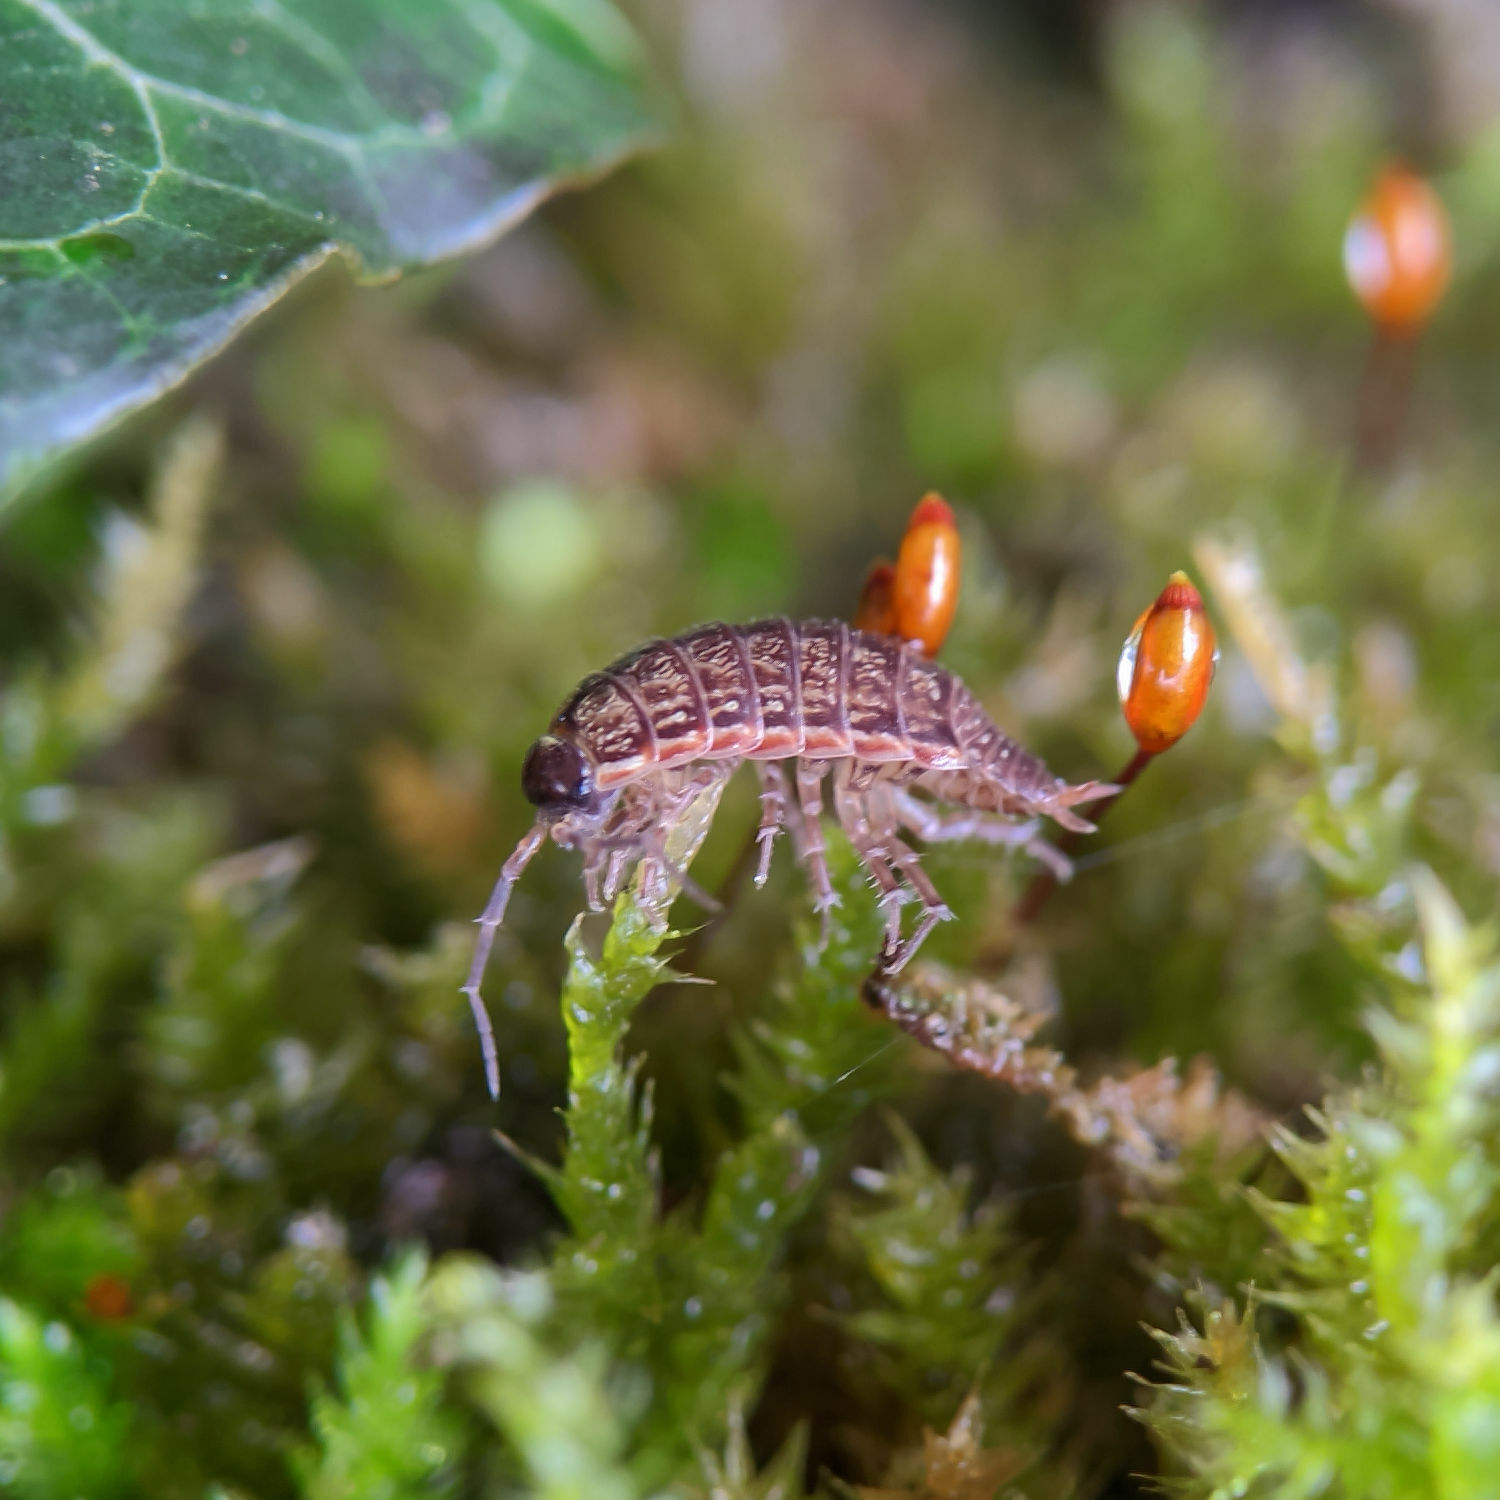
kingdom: Animalia
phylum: Arthropoda
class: Malacostraca
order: Isopoda
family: Philosciidae
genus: Philoscia
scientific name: Philoscia muscorum
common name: Common striped woodlouse
